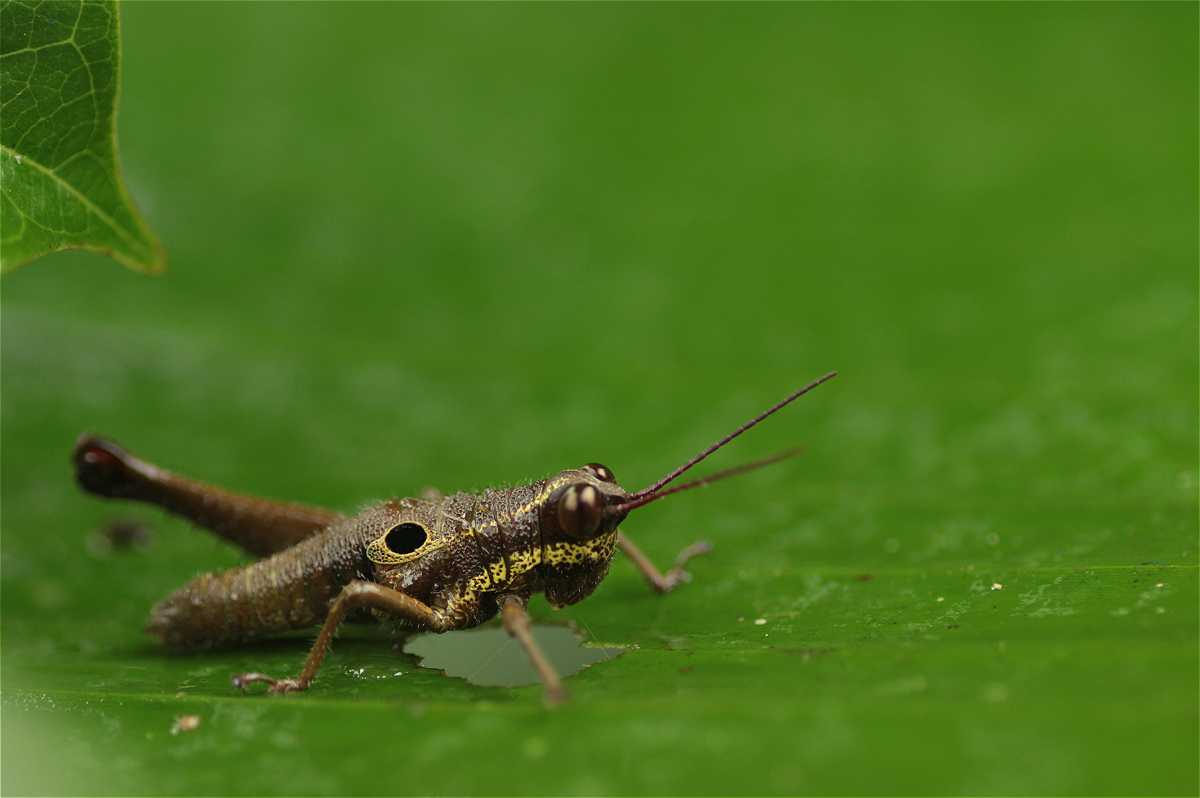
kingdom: Animalia
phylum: Arthropoda
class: Insecta
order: Orthoptera
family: Acrididae
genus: Ommatolampis
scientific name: Ommatolampis perspicillata
